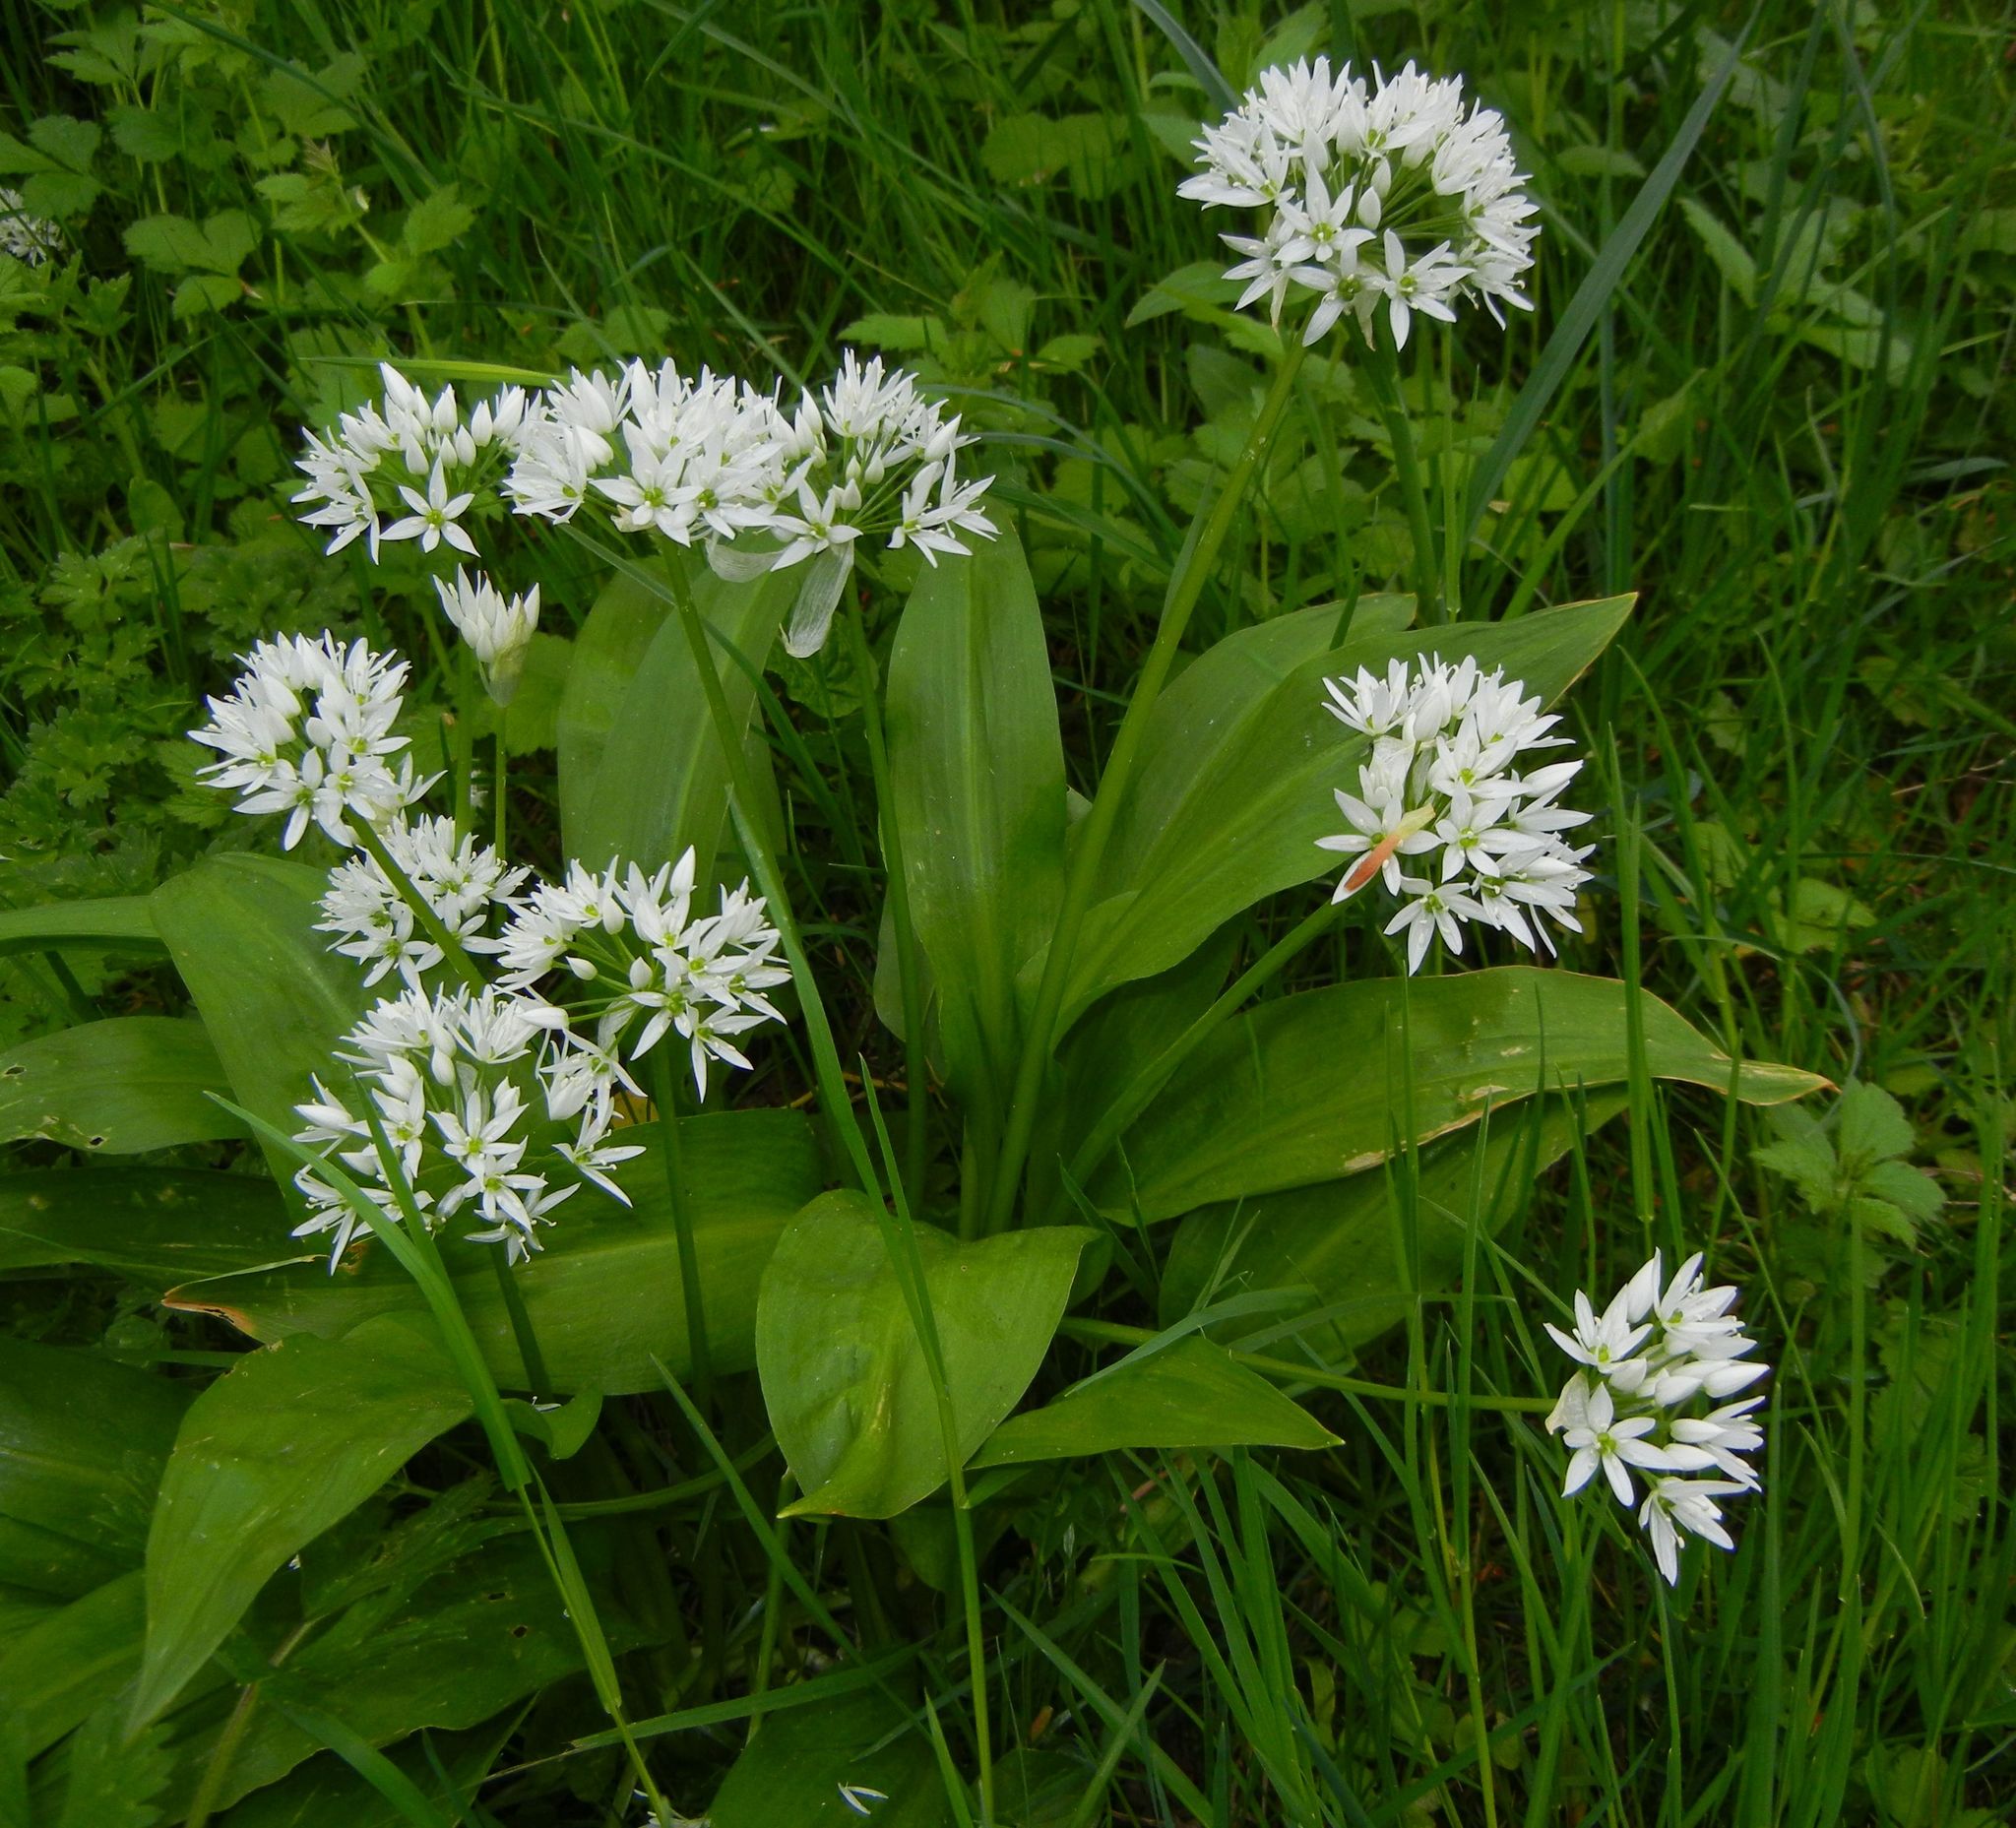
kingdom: Plantae
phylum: Tracheophyta
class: Liliopsida
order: Asparagales
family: Amaryllidaceae
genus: Allium
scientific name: Allium ursinum
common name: Ramsons
